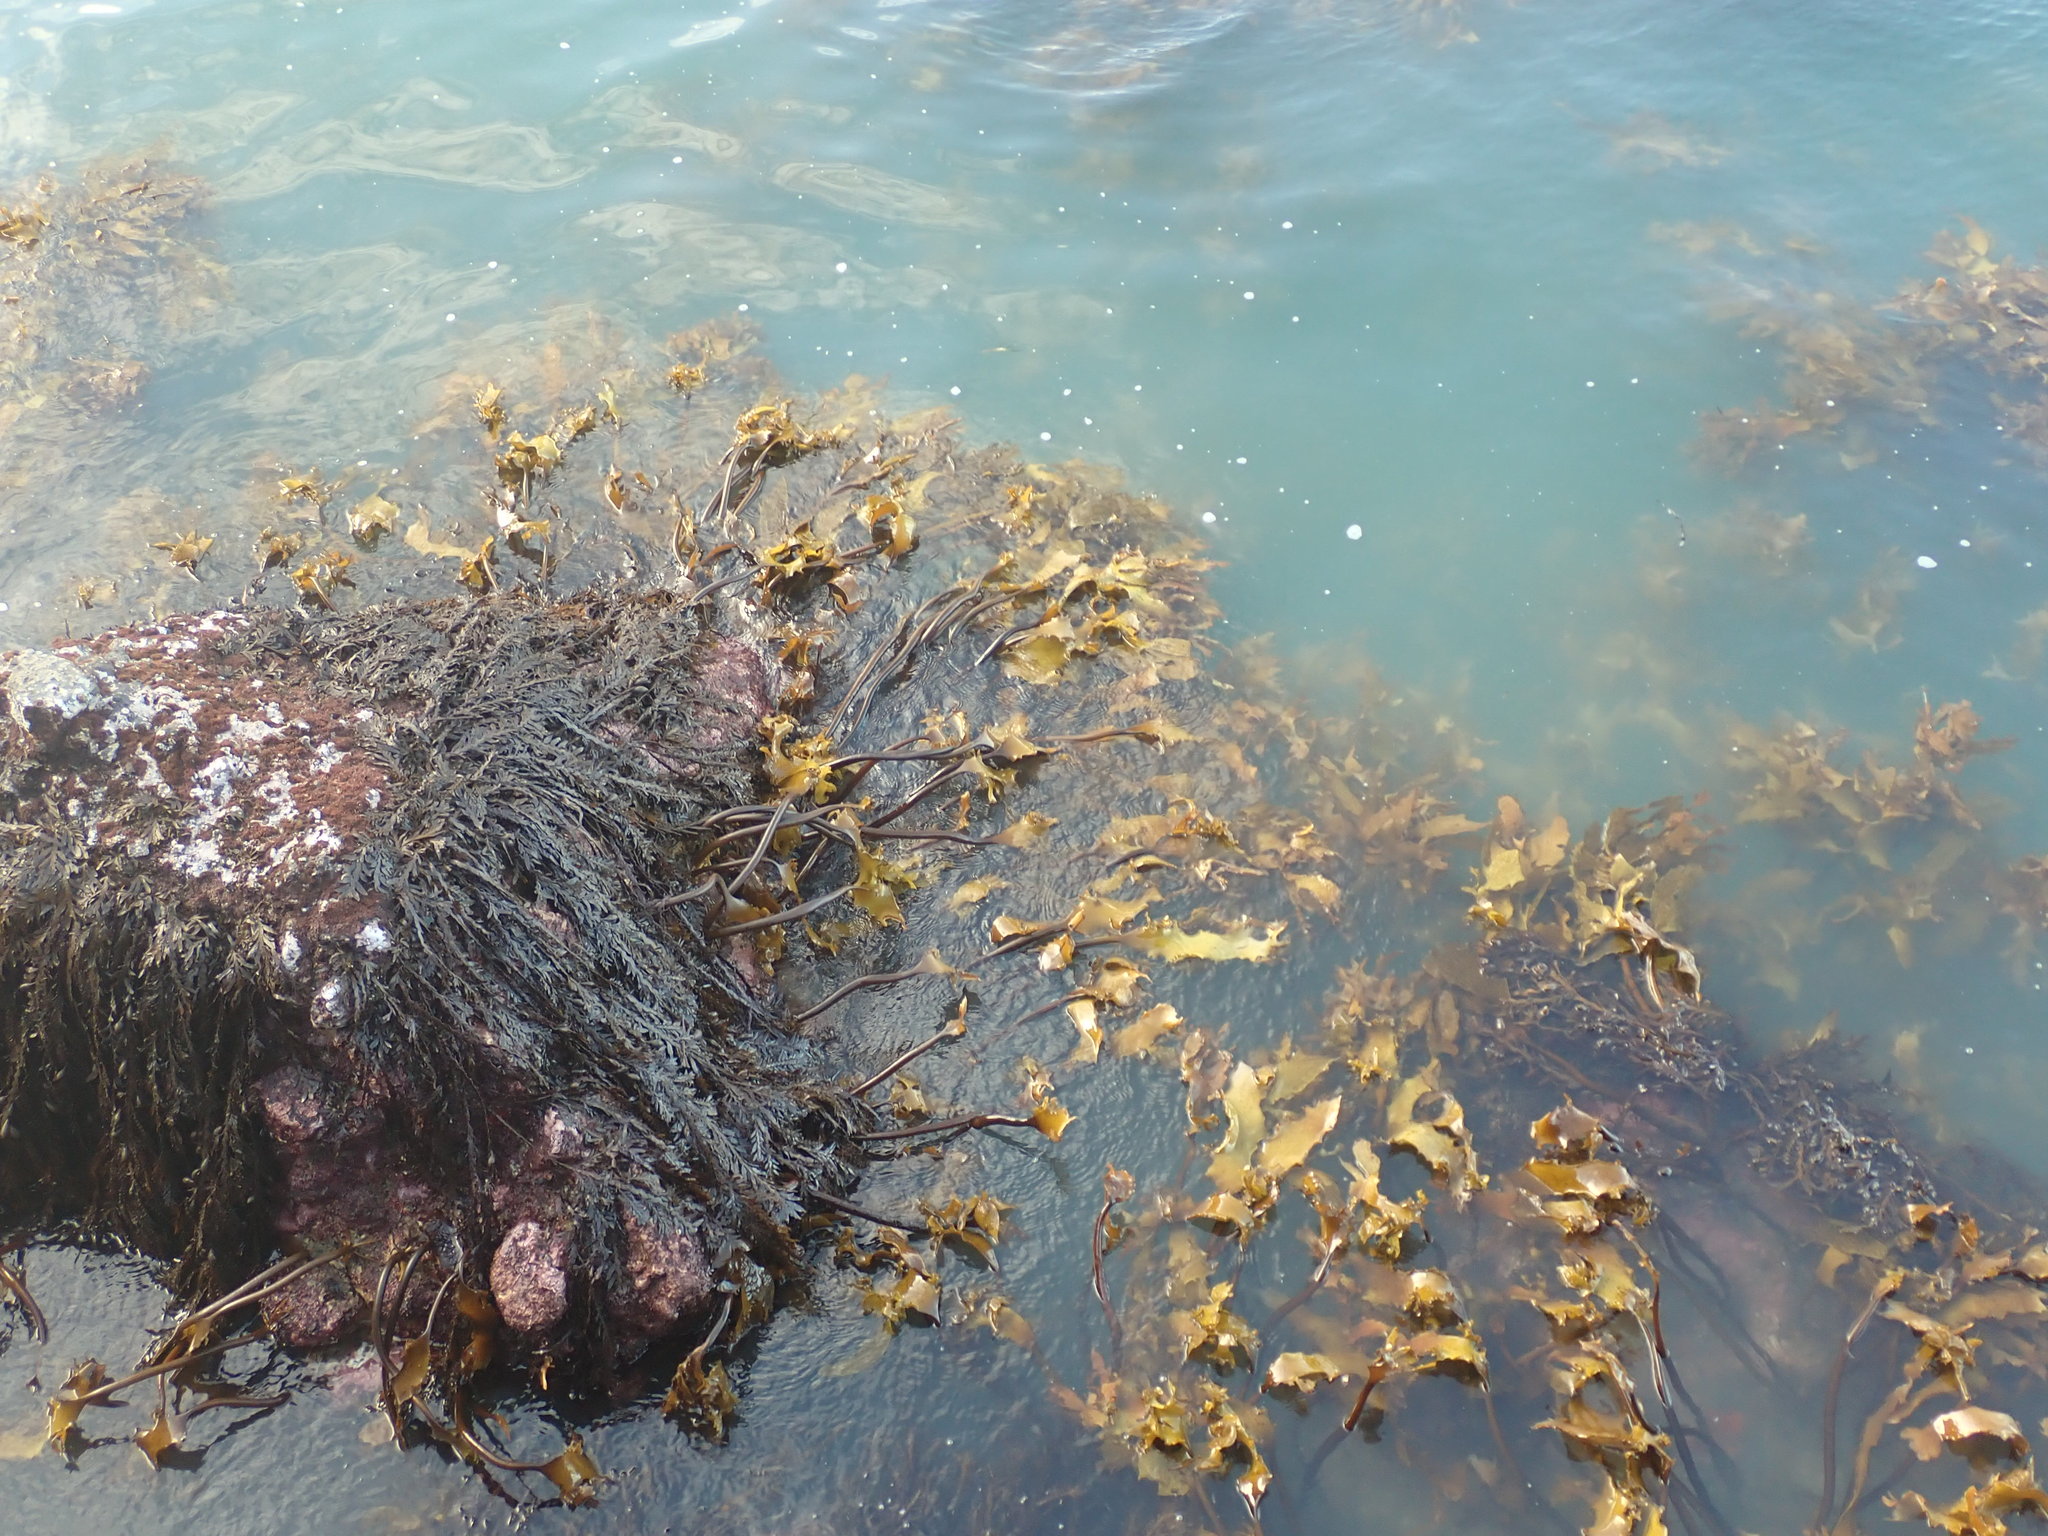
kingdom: Chromista
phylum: Ochrophyta
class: Phaeophyceae
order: Laminariales
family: Lessoniaceae
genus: Ecklonia
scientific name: Ecklonia radiata
